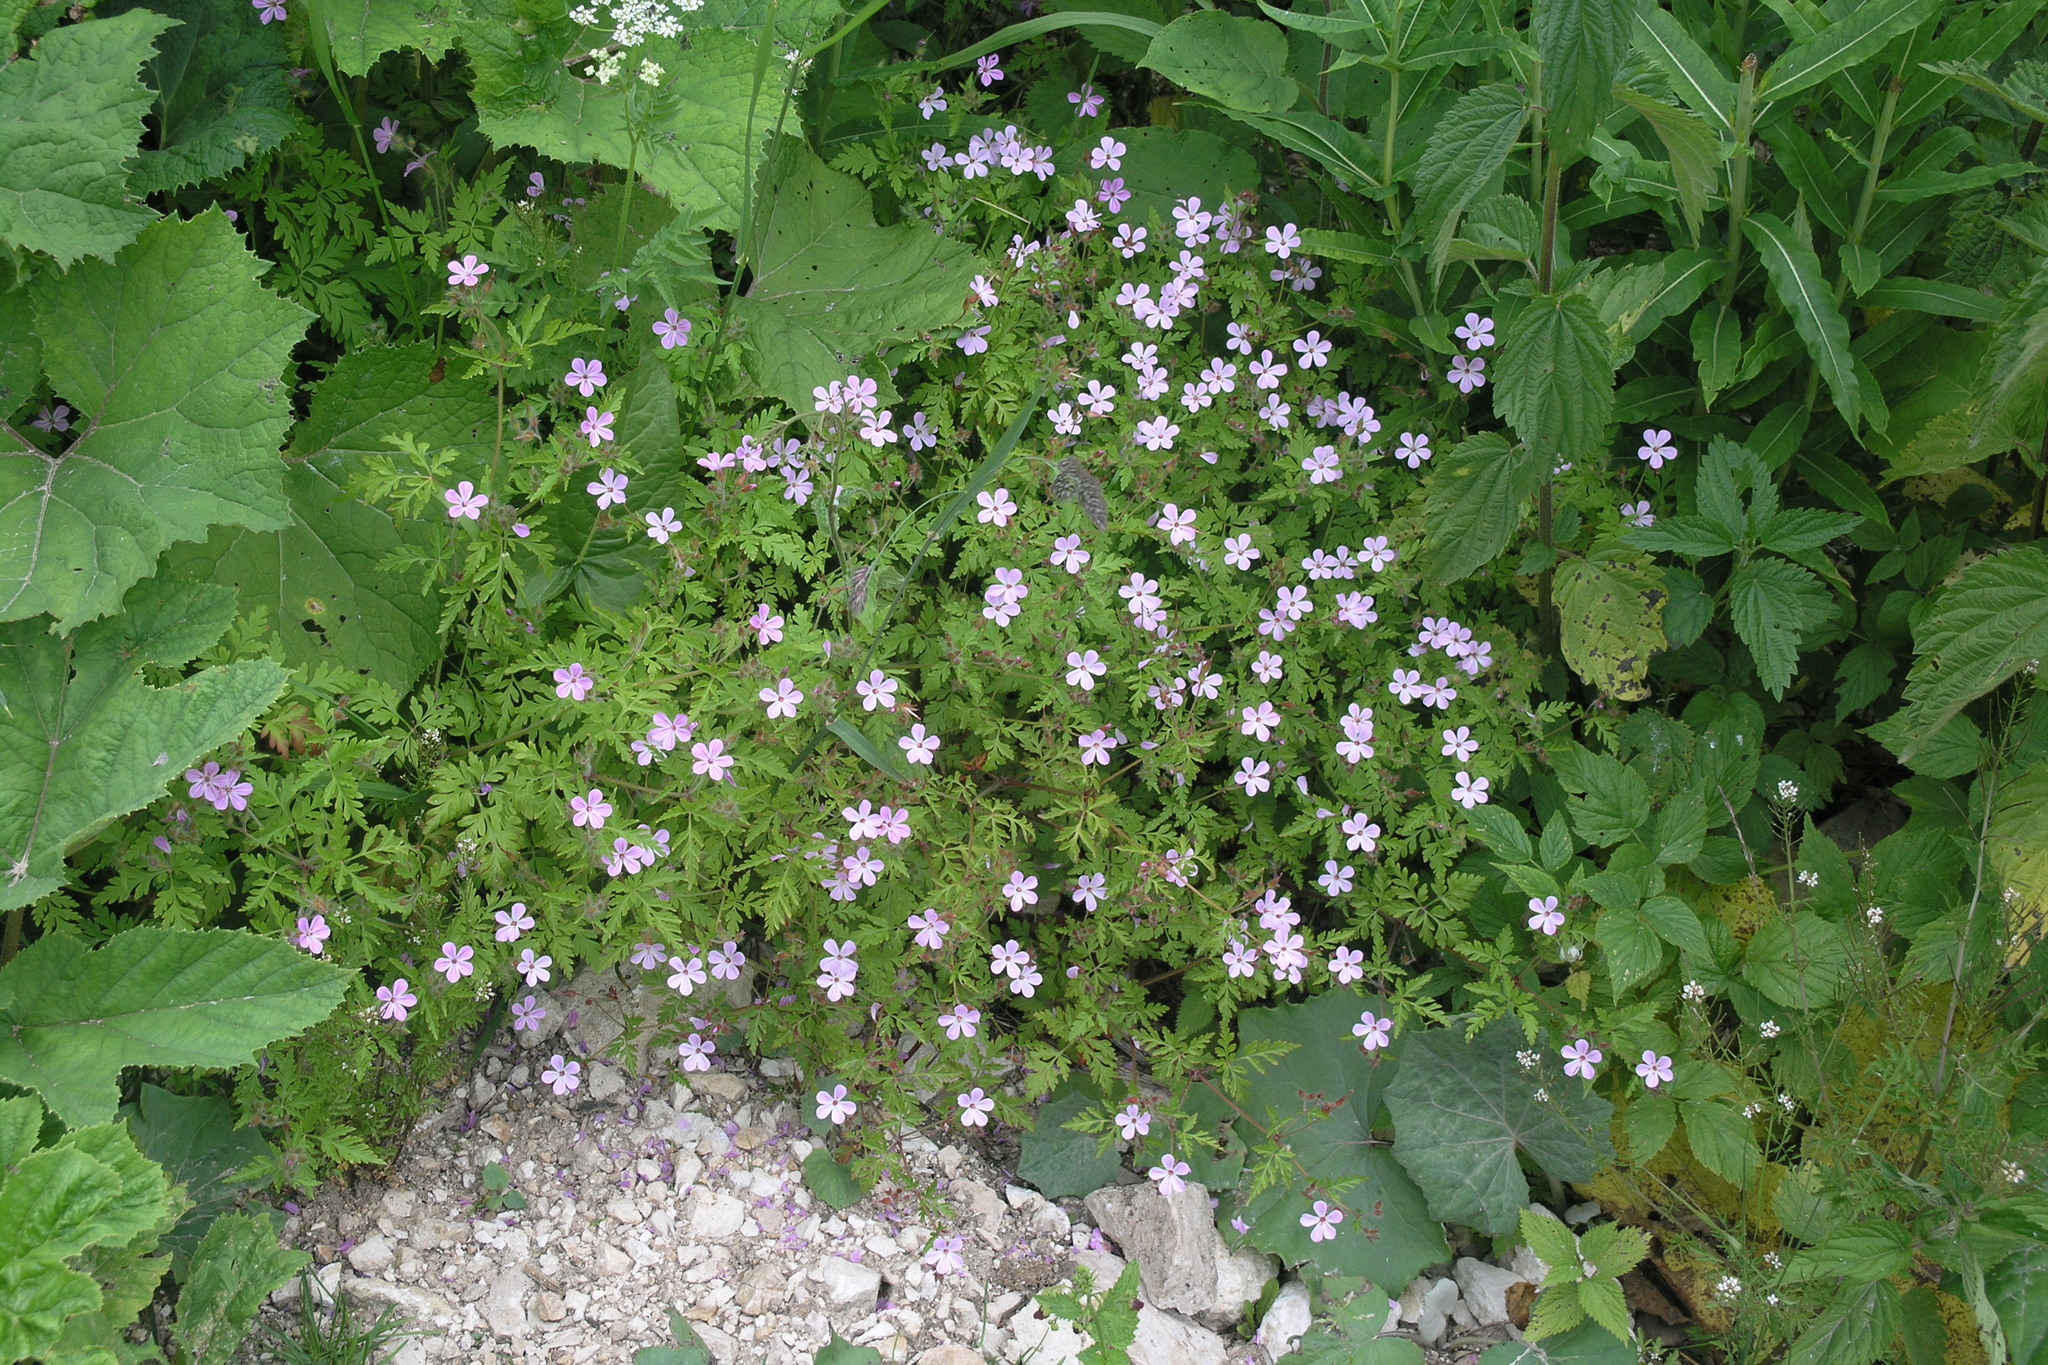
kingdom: Plantae
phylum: Tracheophyta
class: Magnoliopsida
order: Geraniales
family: Geraniaceae
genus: Geranium
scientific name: Geranium robertianum
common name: Herb-robert
